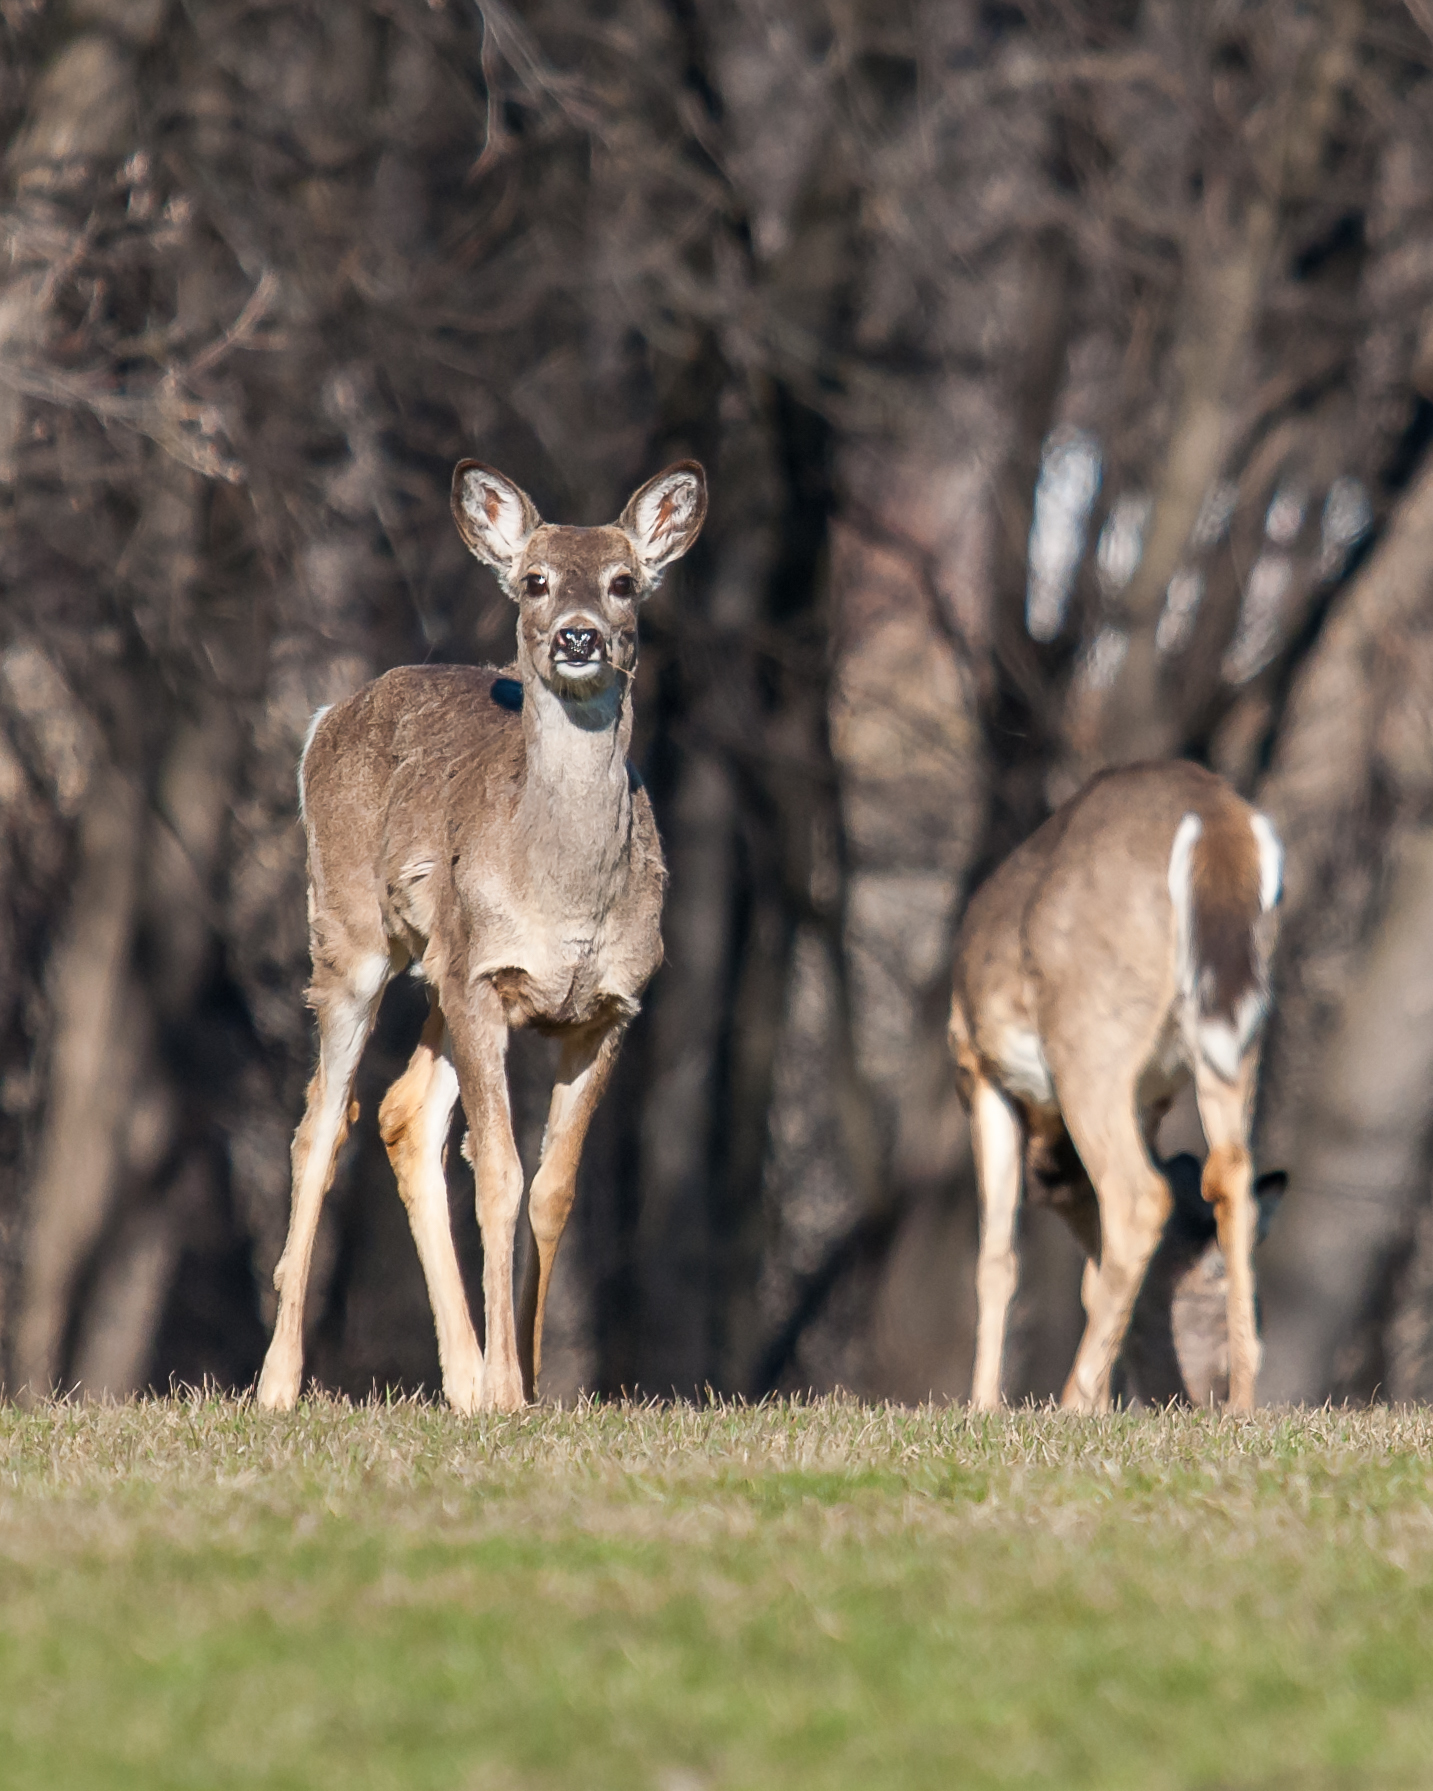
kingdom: Animalia
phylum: Chordata
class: Mammalia
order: Artiodactyla
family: Cervidae
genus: Odocoileus
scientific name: Odocoileus virginianus
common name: White-tailed deer
